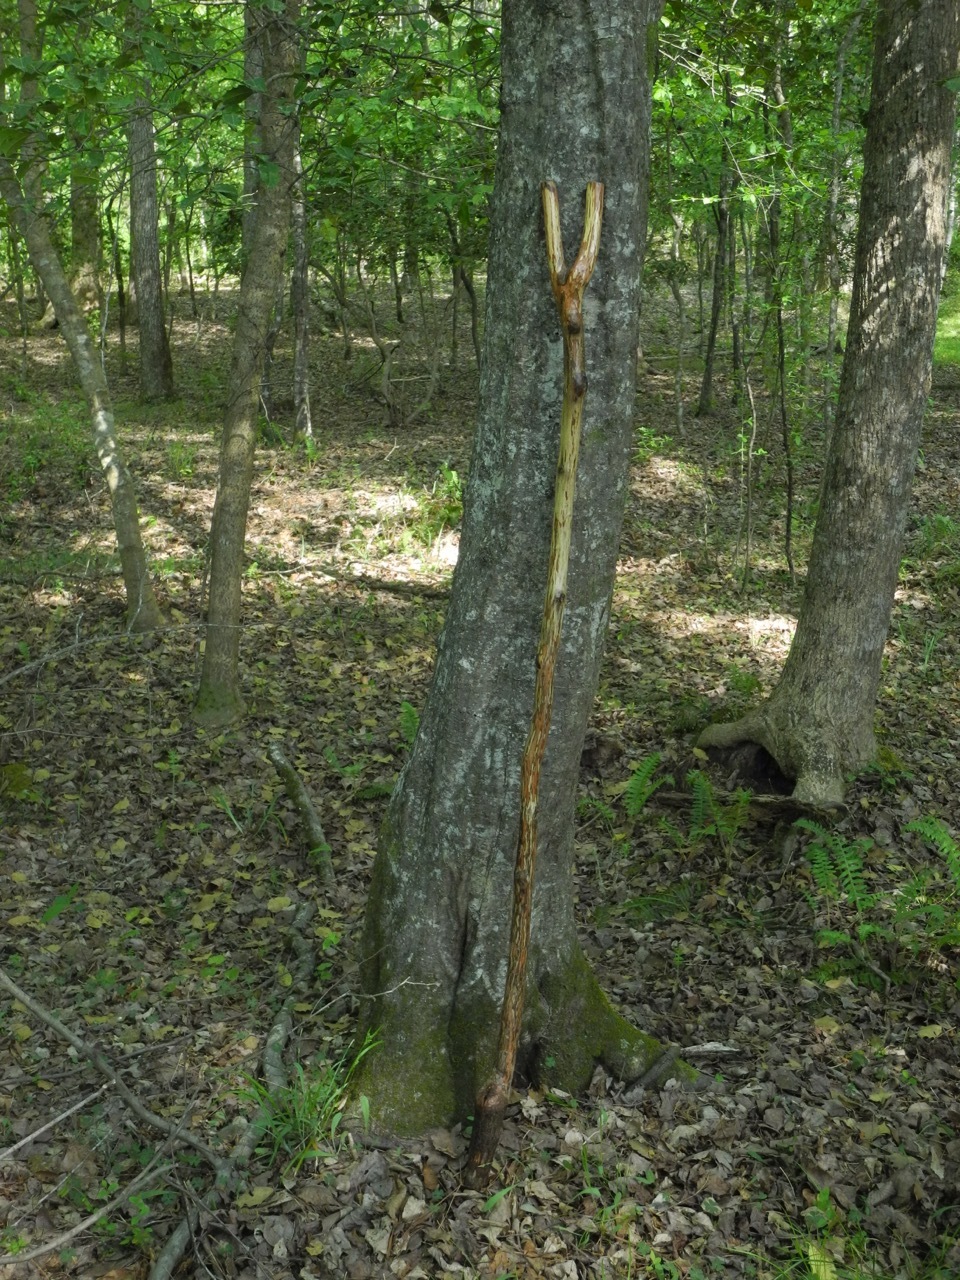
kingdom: Plantae
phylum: Tracheophyta
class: Magnoliopsida
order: Fagales
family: Betulaceae
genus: Carpinus
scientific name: Carpinus caroliniana
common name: American hornbeam
